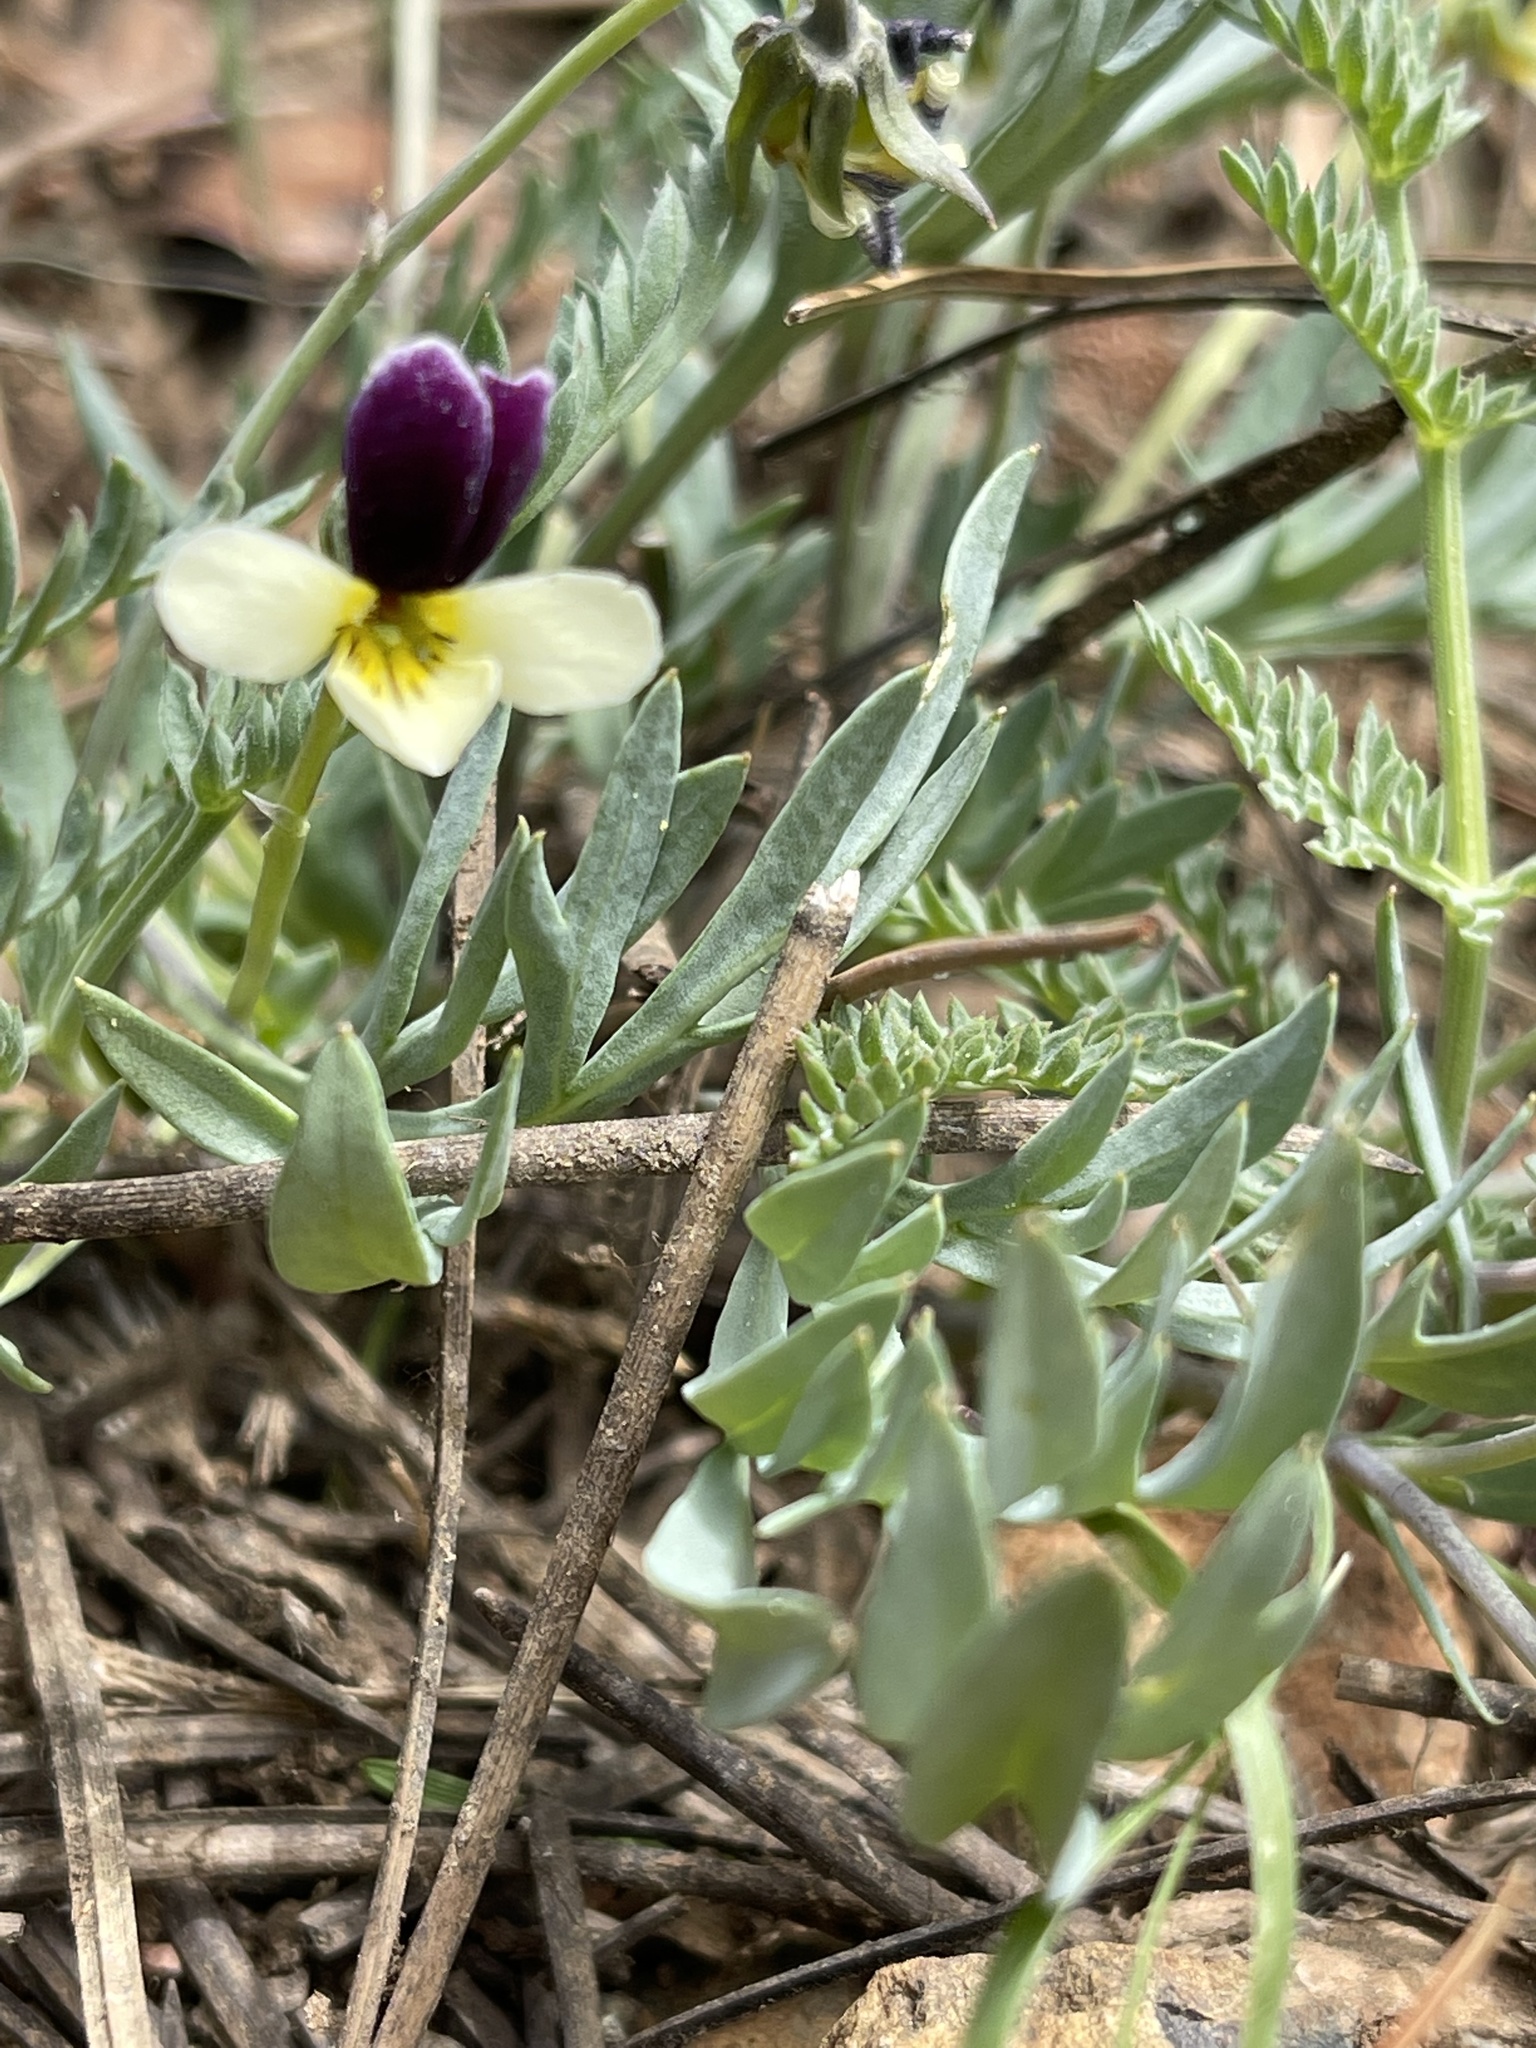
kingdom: Plantae
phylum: Tracheophyta
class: Magnoliopsida
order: Malpighiales
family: Violaceae
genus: Viola
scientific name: Viola hallii
